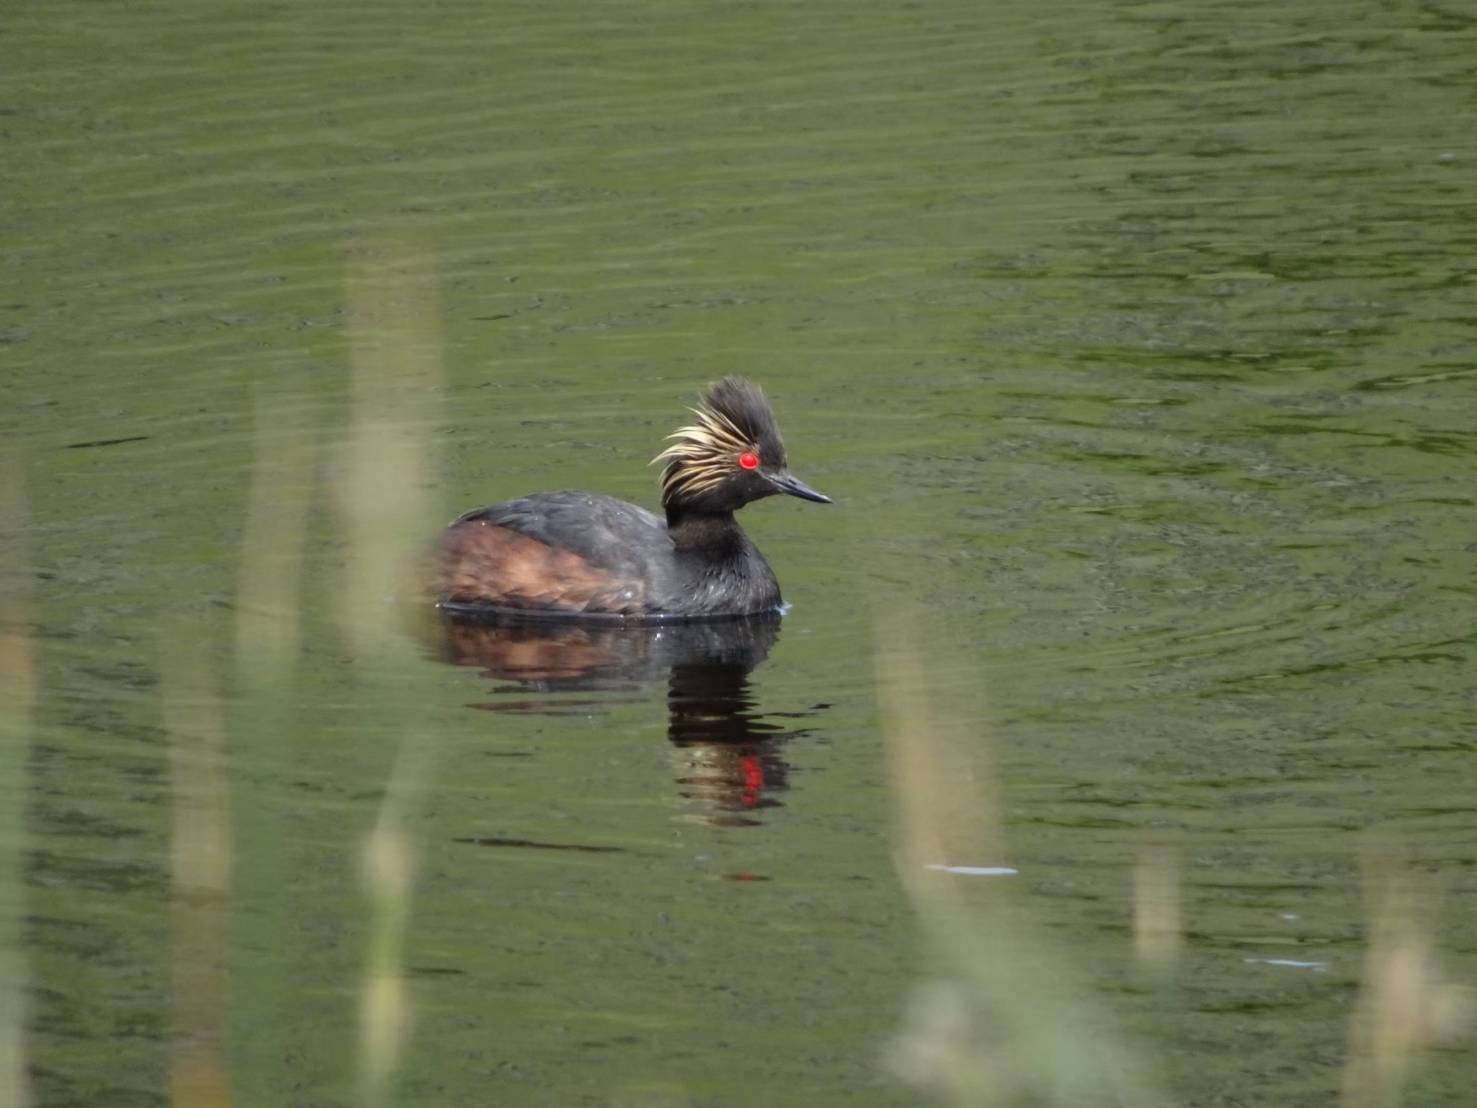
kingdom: Animalia
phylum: Chordata
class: Aves
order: Podicipediformes
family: Podicipedidae
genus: Podiceps
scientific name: Podiceps nigricollis
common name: Black-necked grebe
